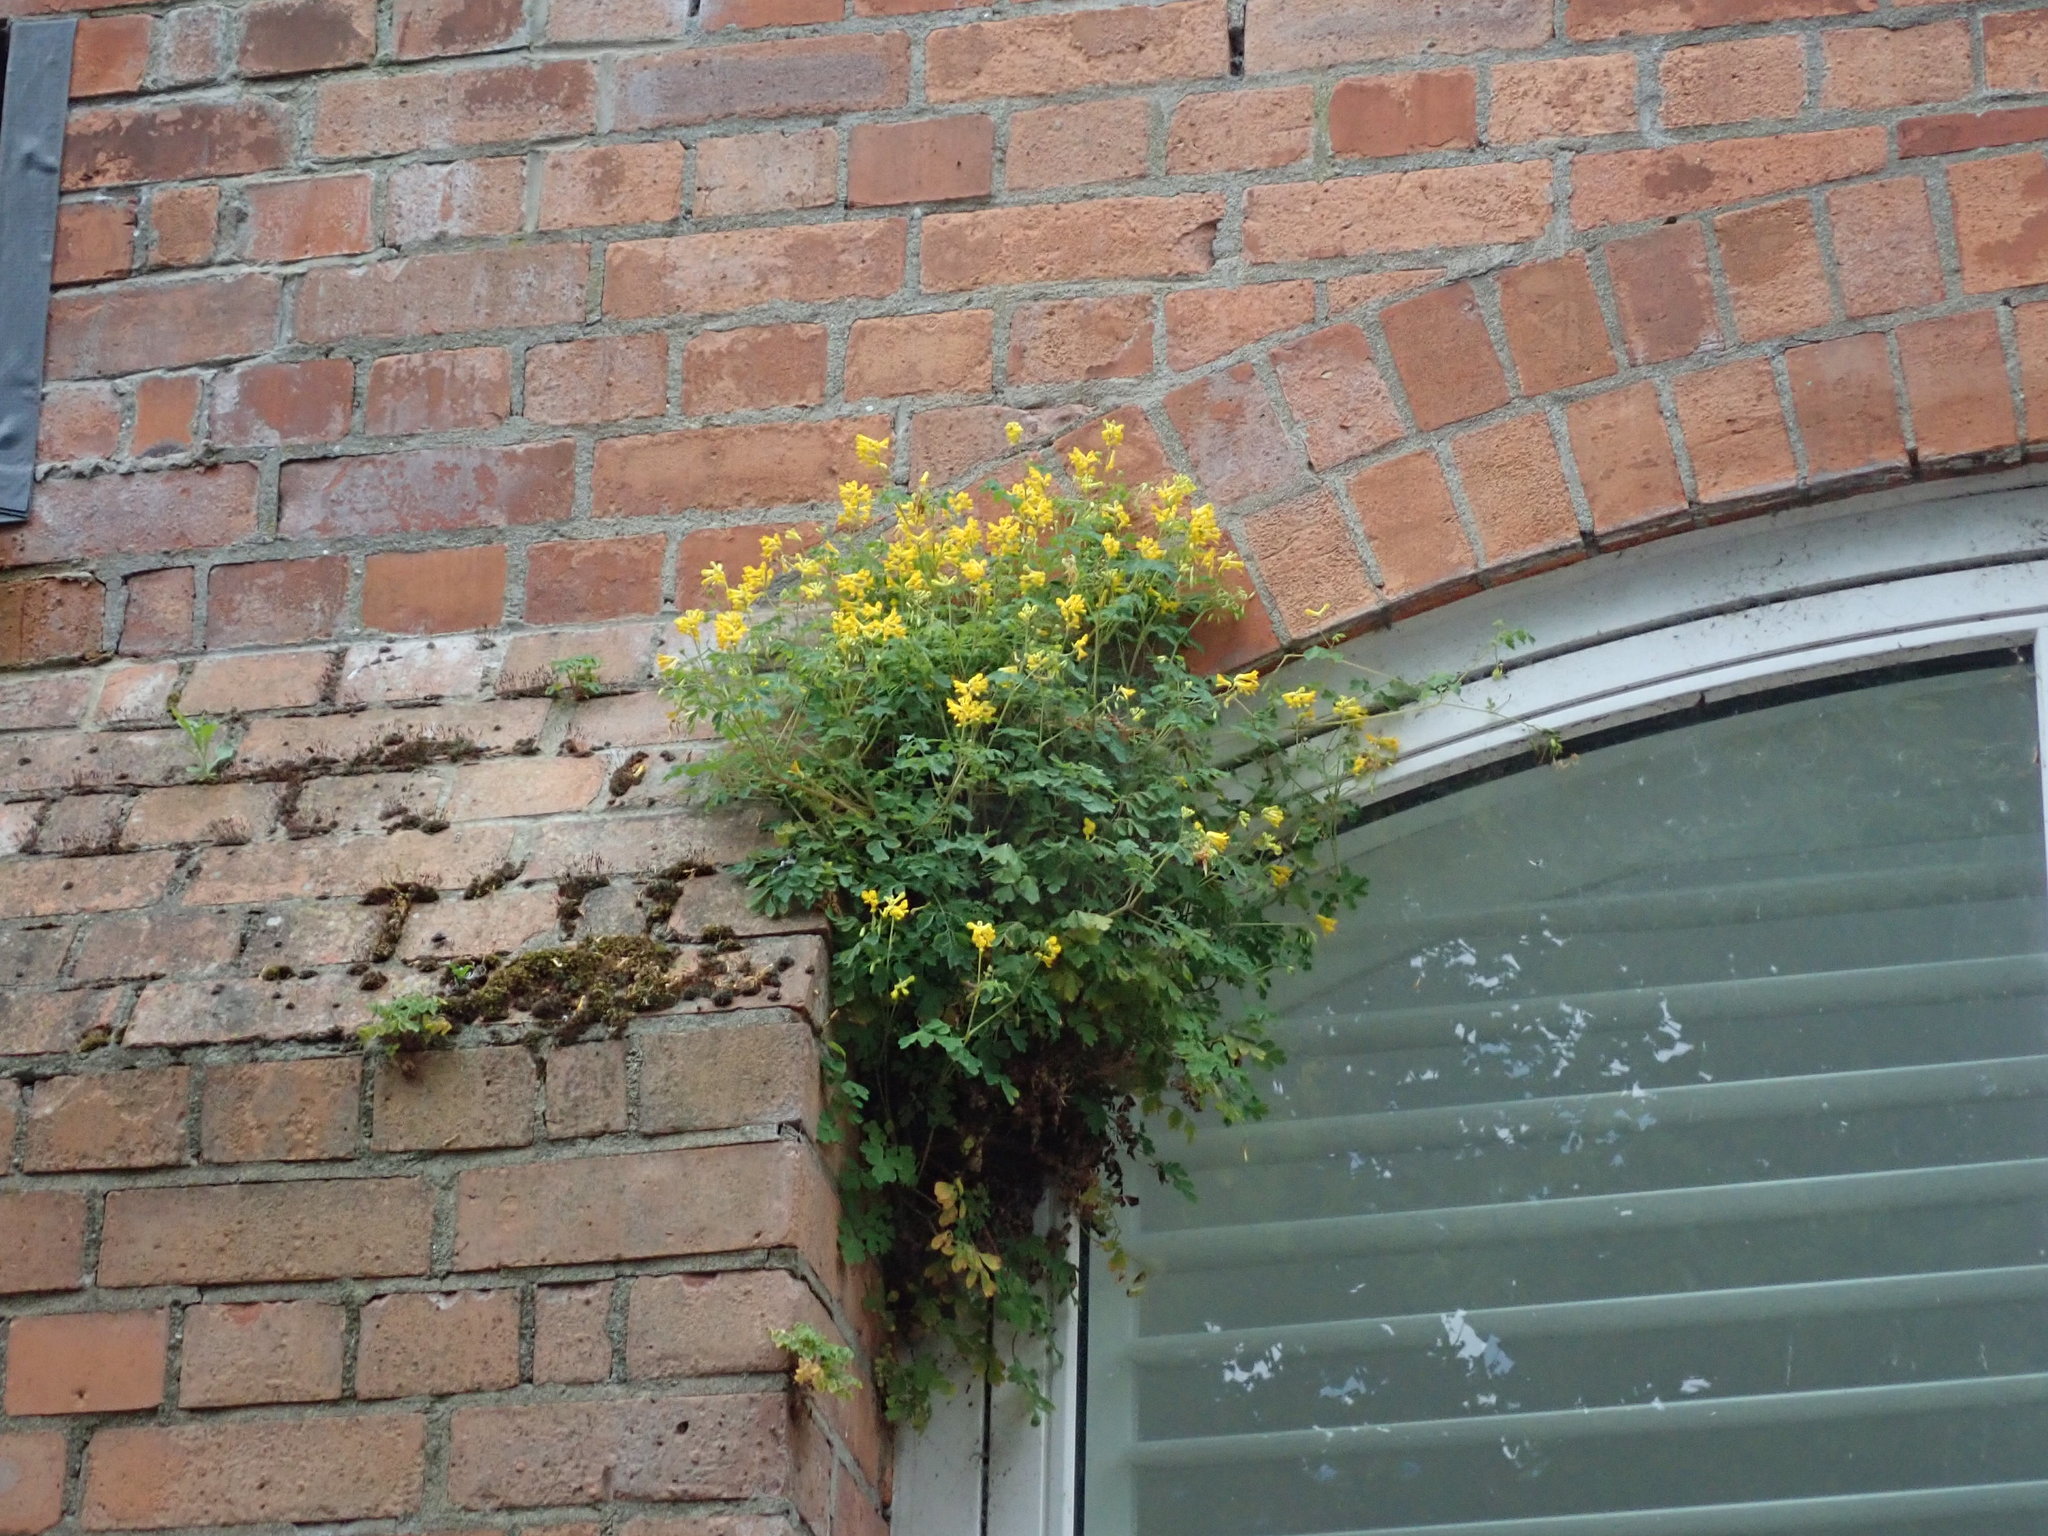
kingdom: Plantae
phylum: Tracheophyta
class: Magnoliopsida
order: Ranunculales
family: Papaveraceae
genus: Pseudofumaria
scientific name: Pseudofumaria lutea
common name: Yellow corydalis
